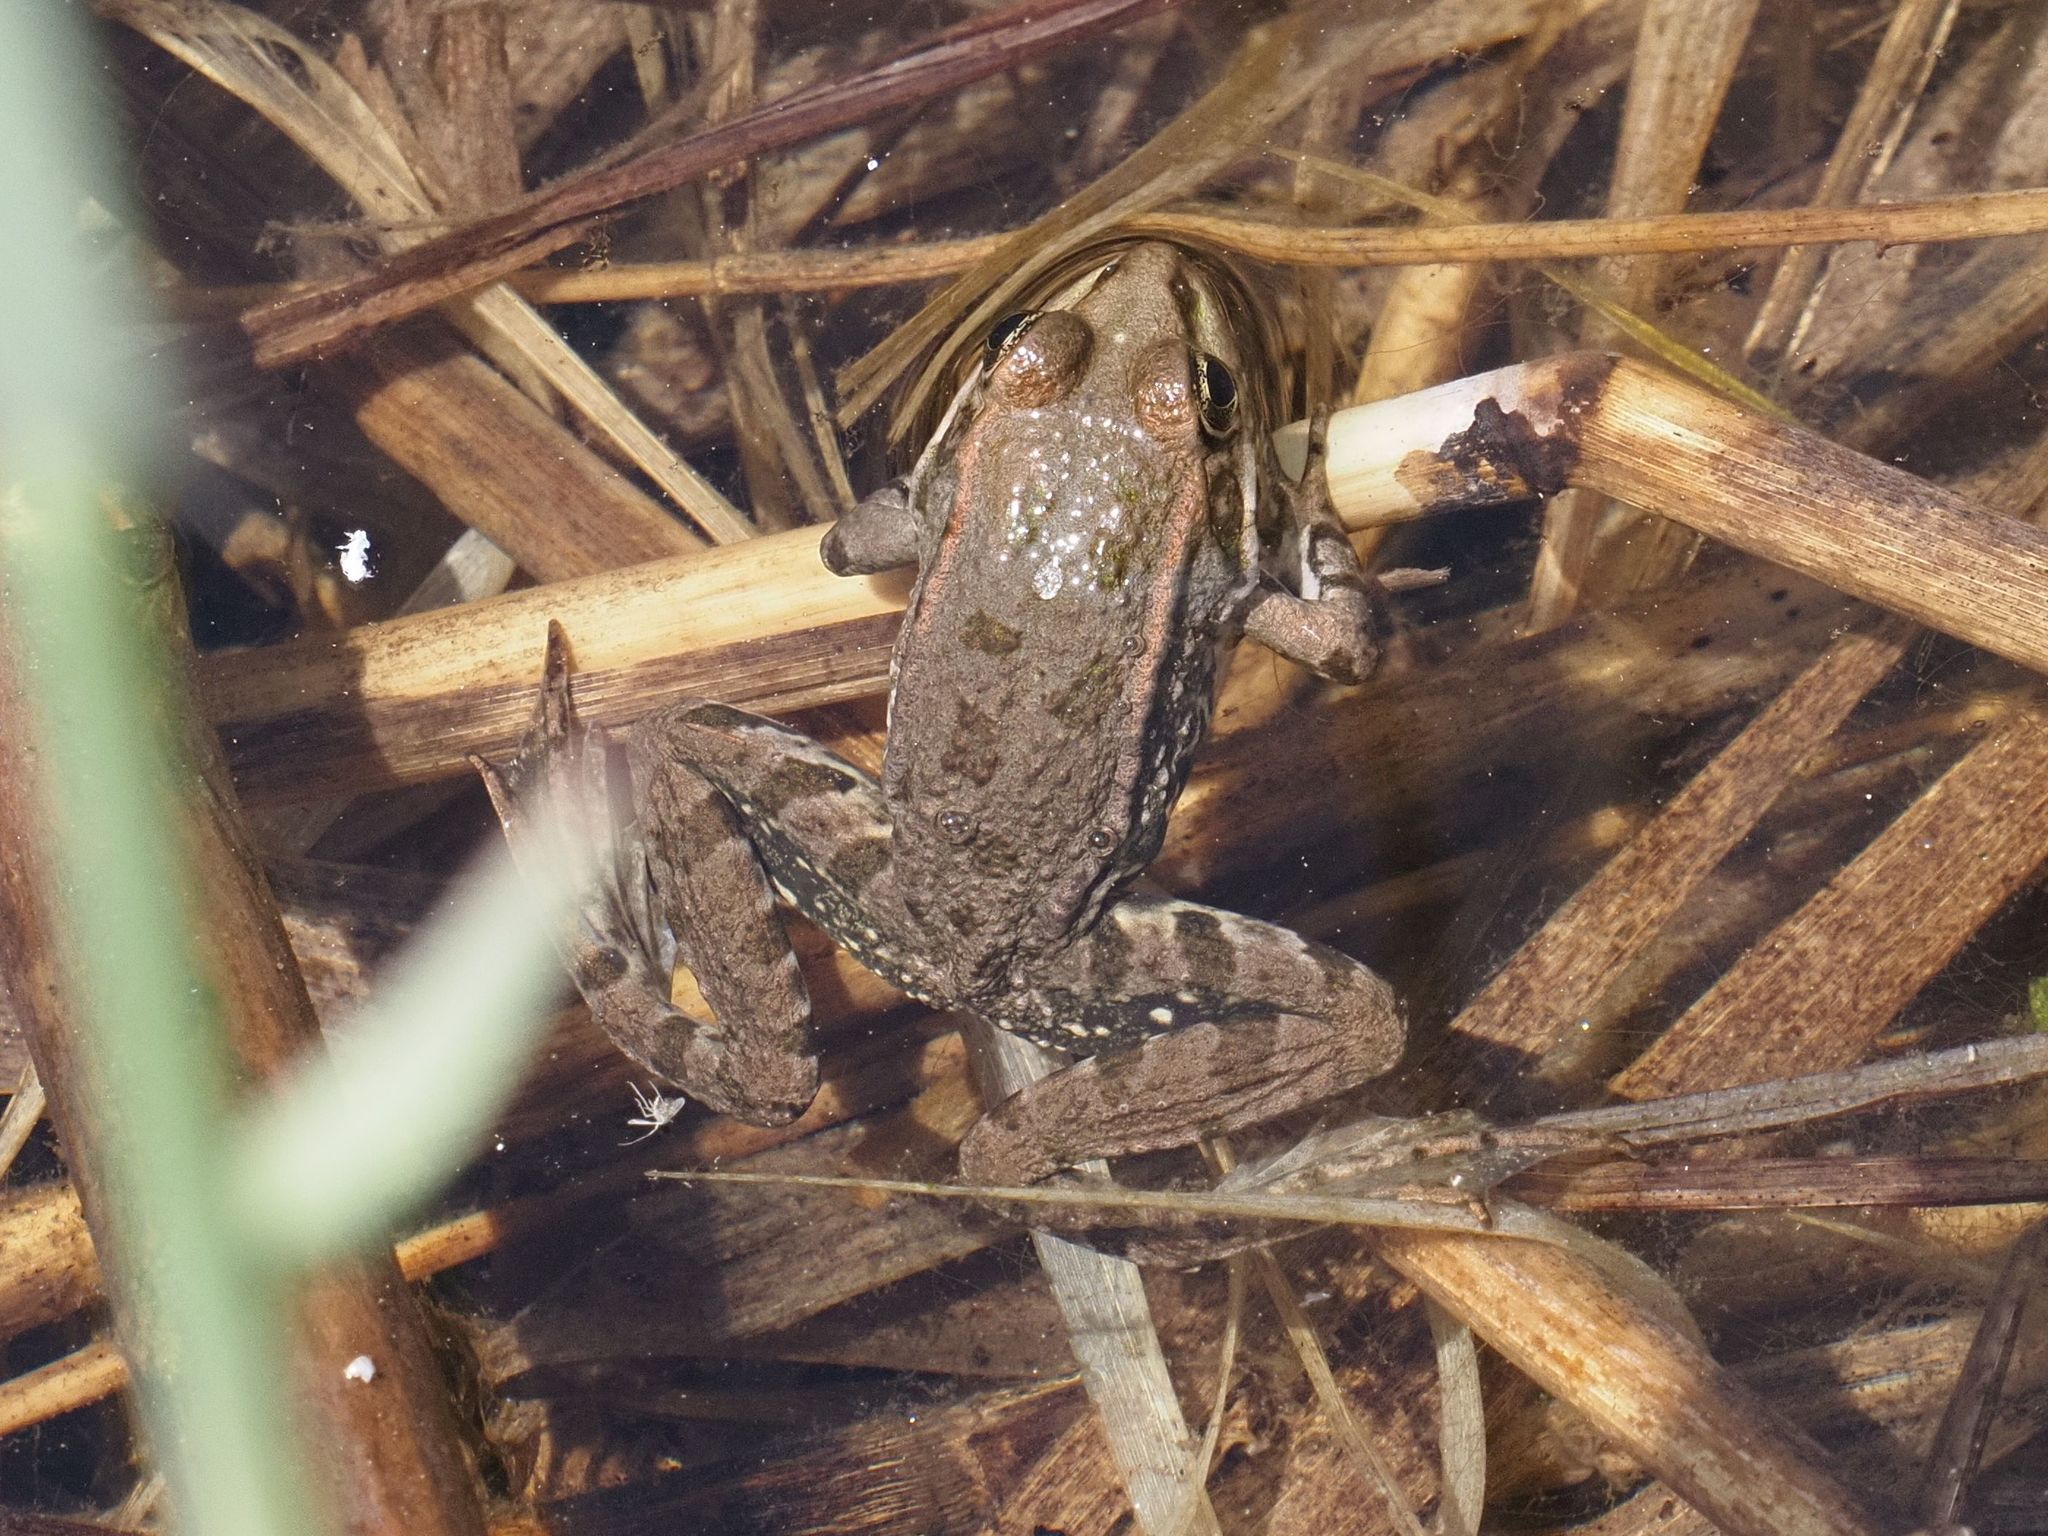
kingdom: Animalia
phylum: Chordata
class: Amphibia
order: Anura
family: Ranidae
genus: Pelophylax
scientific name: Pelophylax
